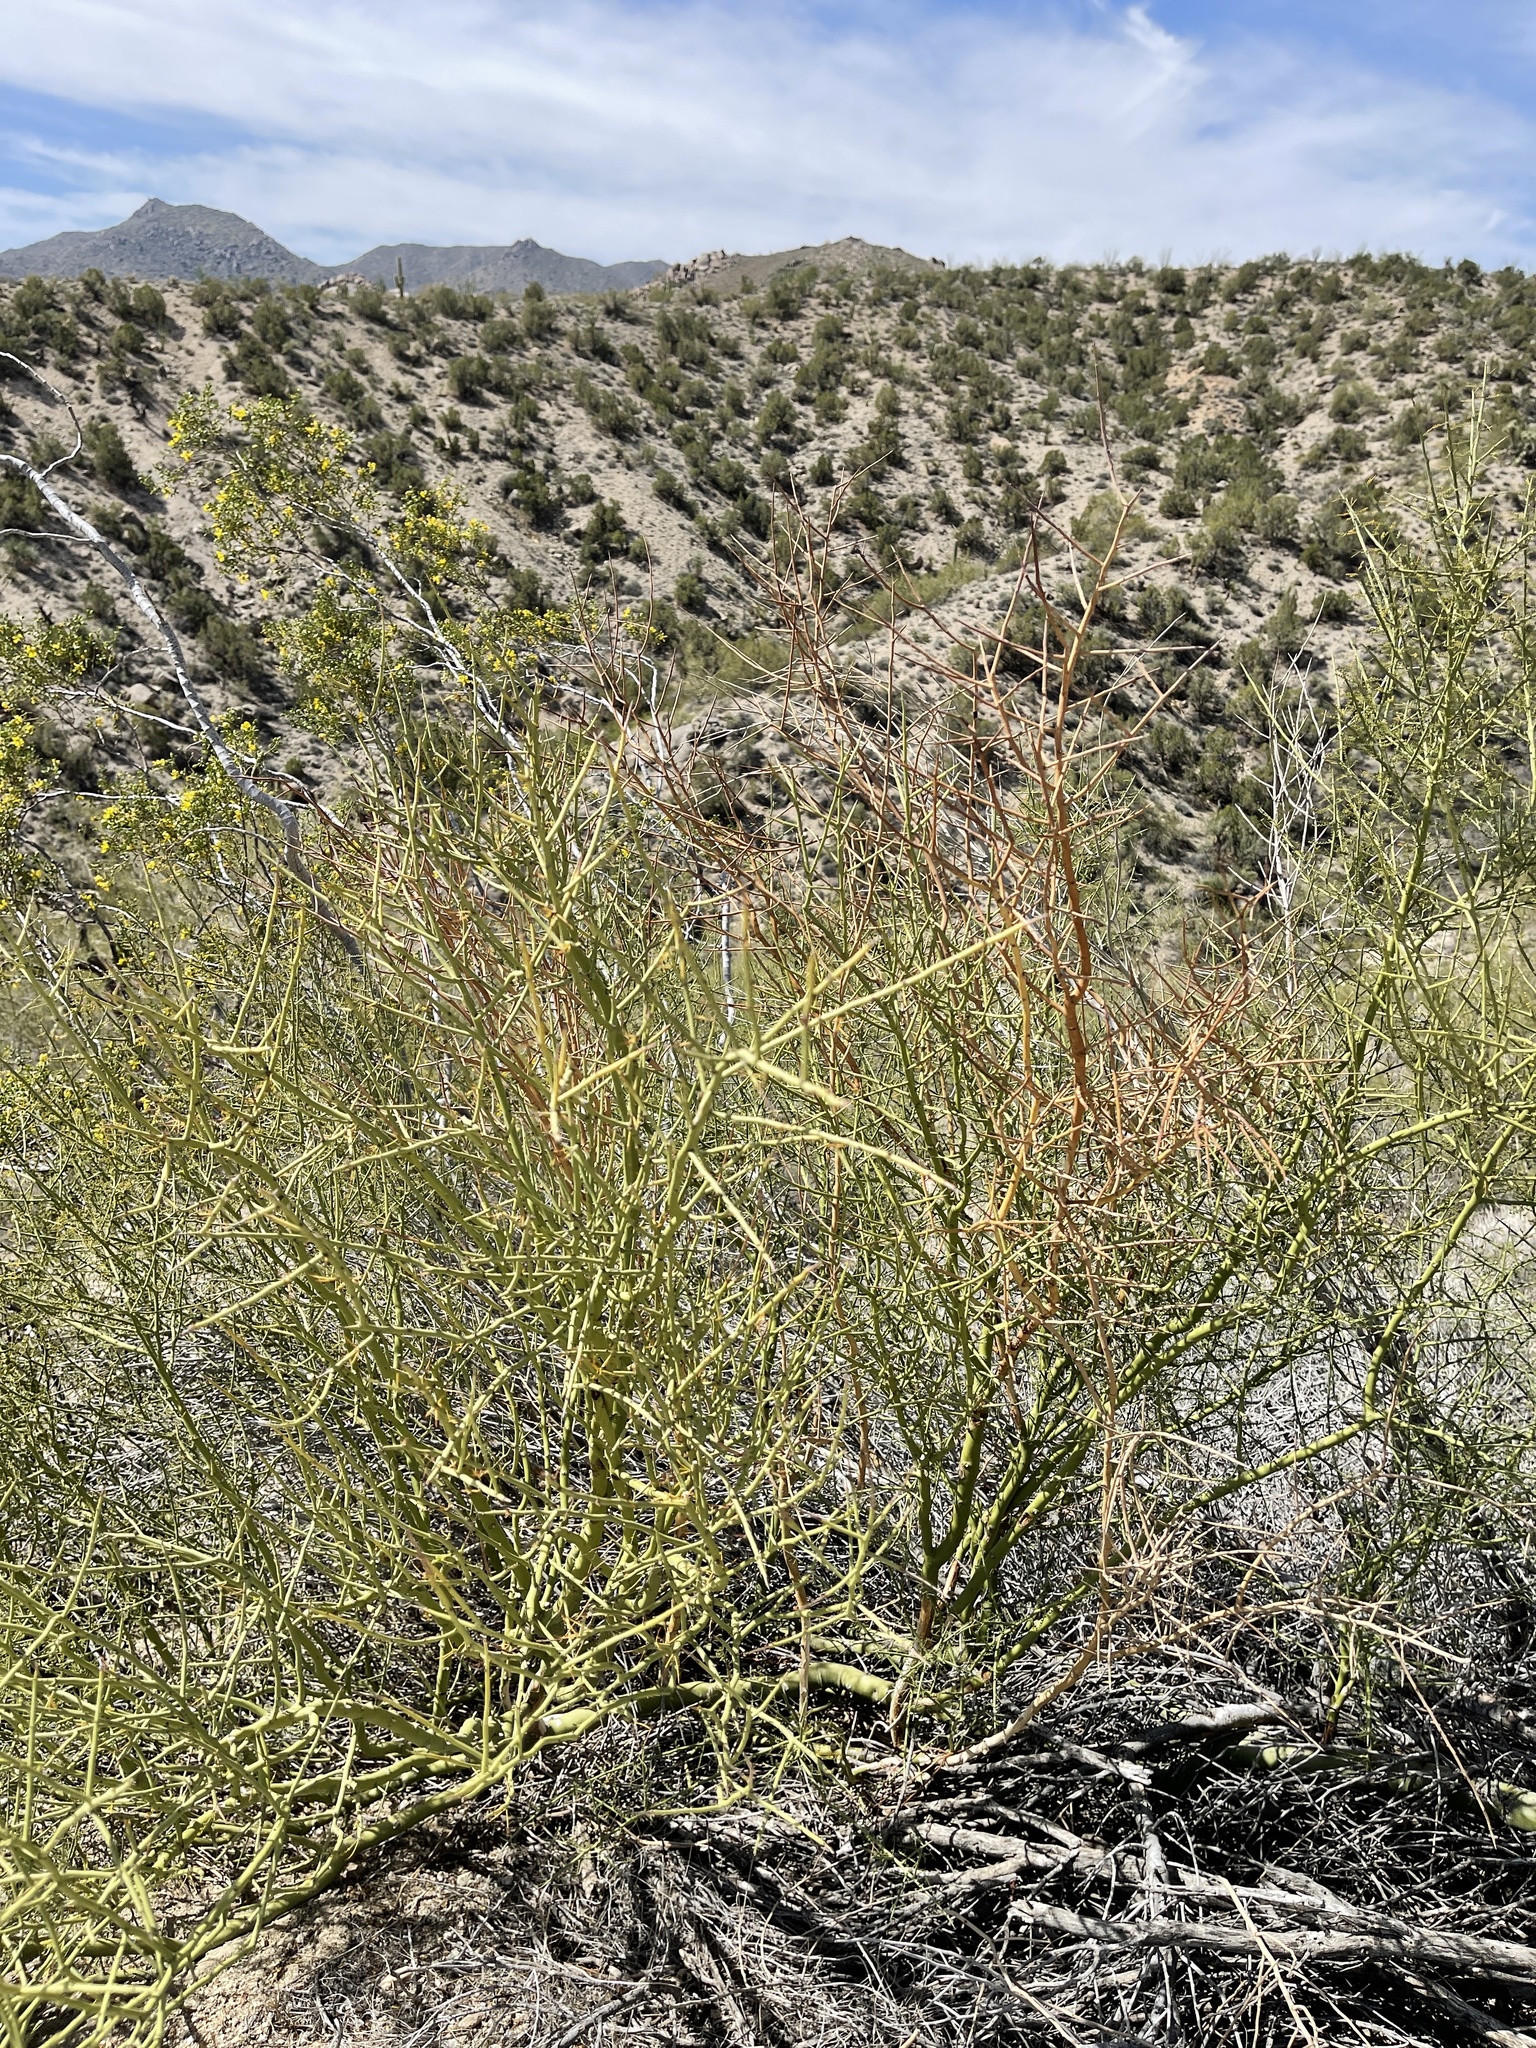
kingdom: Plantae
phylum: Tracheophyta
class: Magnoliopsida
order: Fabales
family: Fabaceae
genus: Parkinsonia
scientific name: Parkinsonia microphylla
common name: Yellow paloverde
